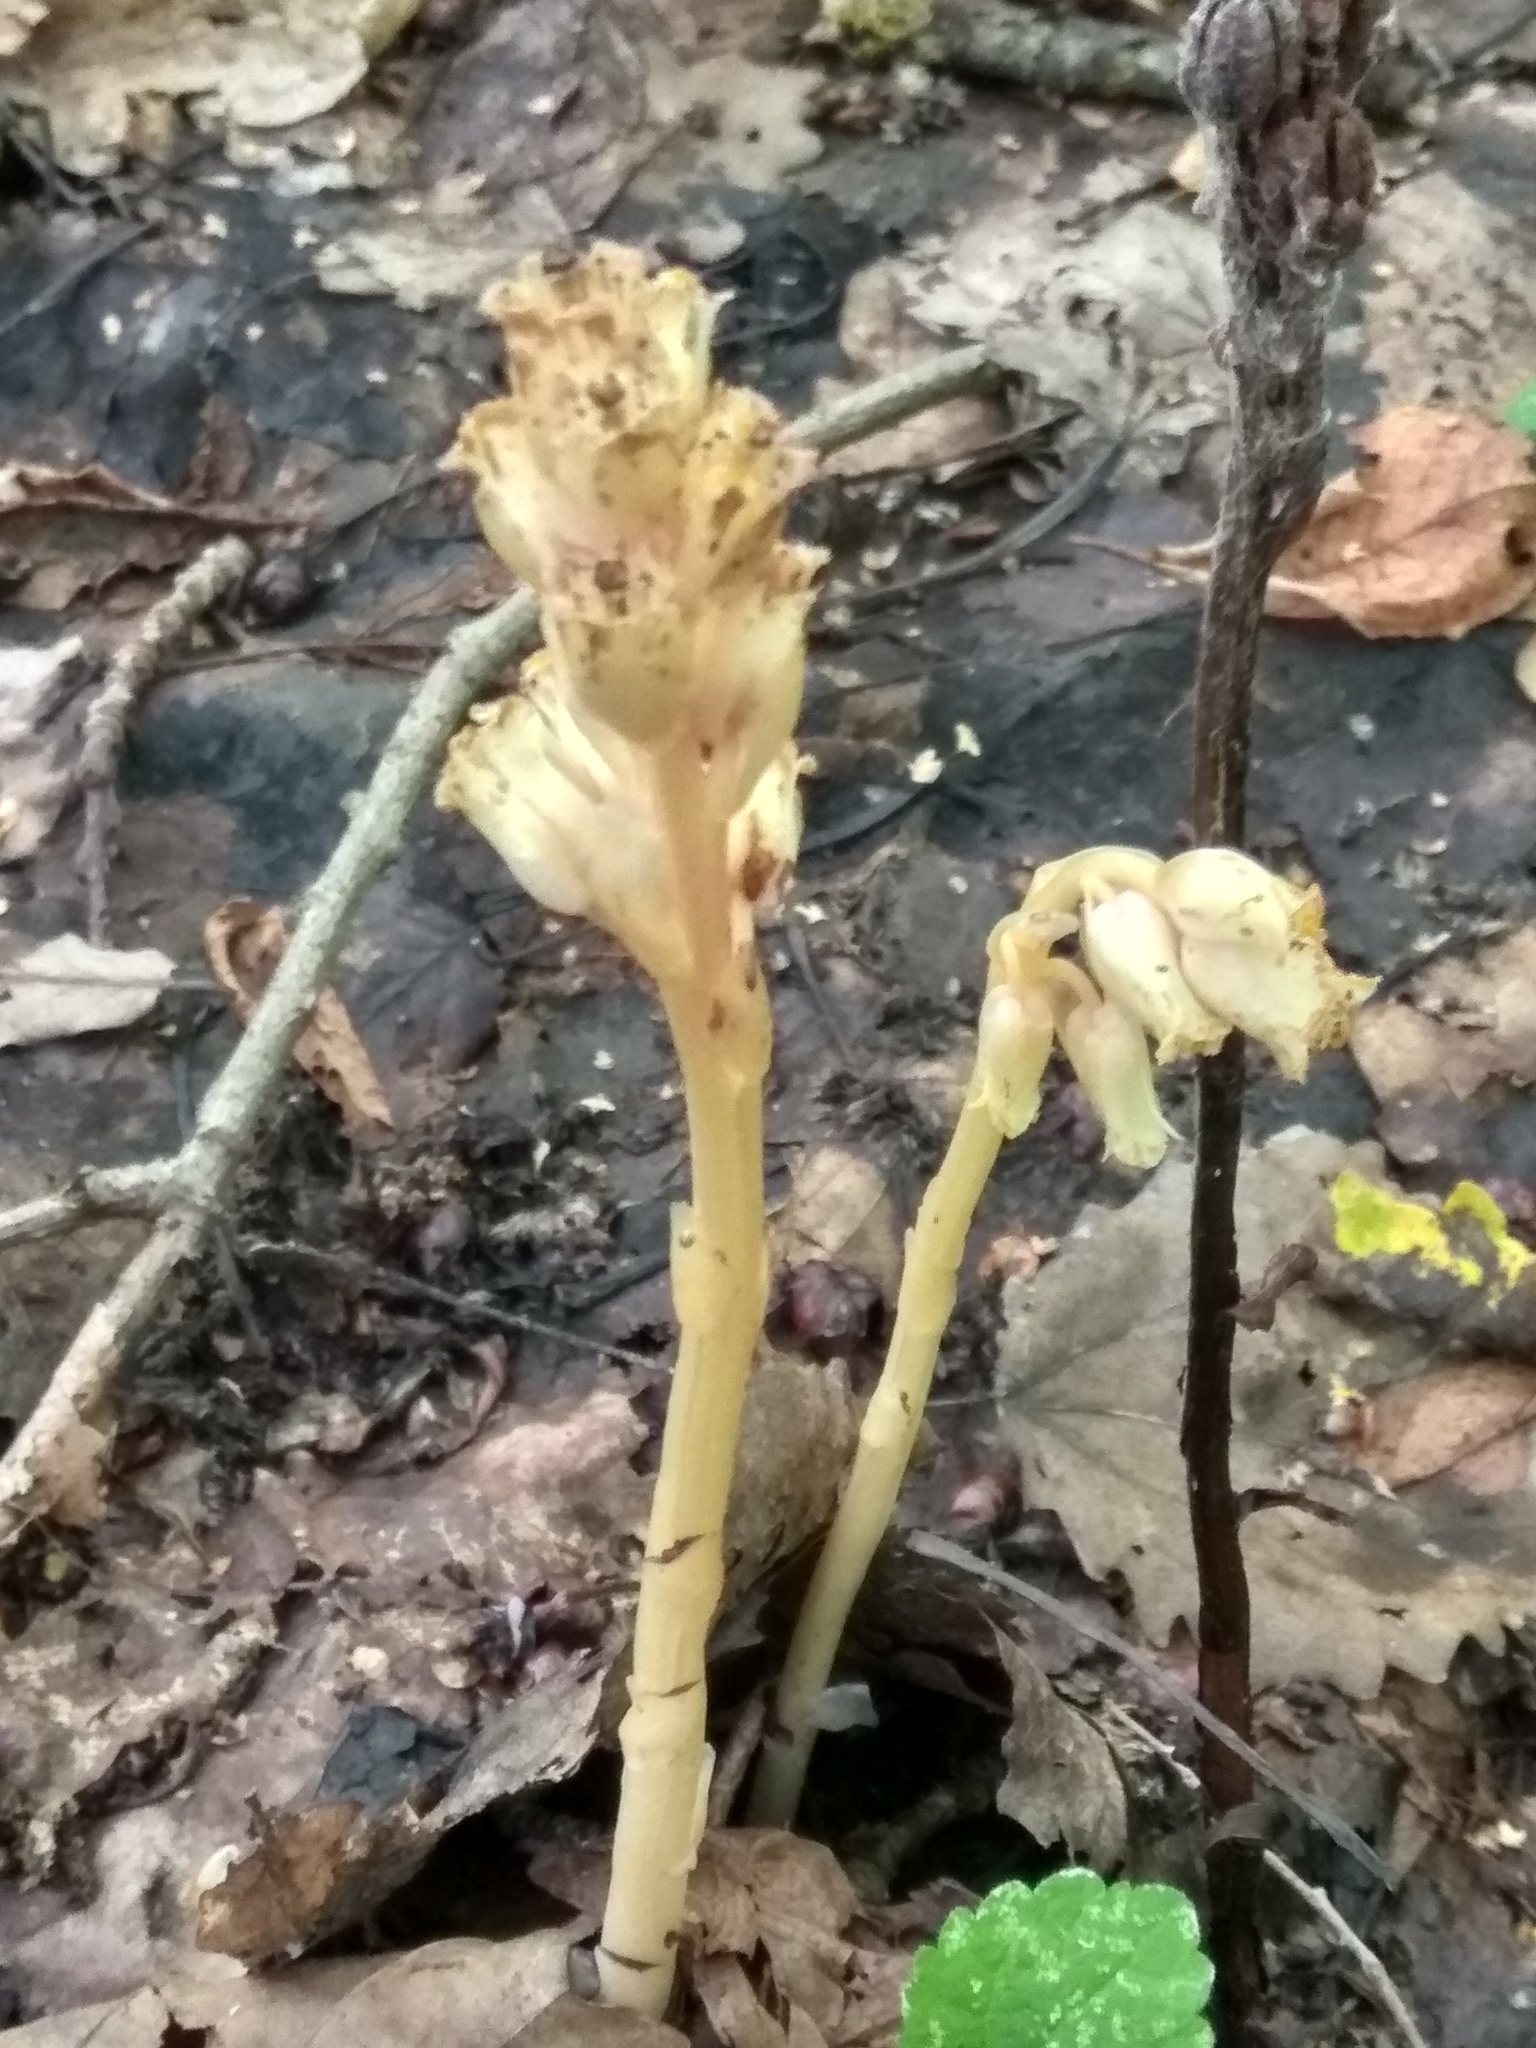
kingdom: Plantae
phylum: Tracheophyta
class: Magnoliopsida
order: Ericales
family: Ericaceae
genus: Hypopitys
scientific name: Hypopitys monotropa
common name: Yellow bird's-nest
